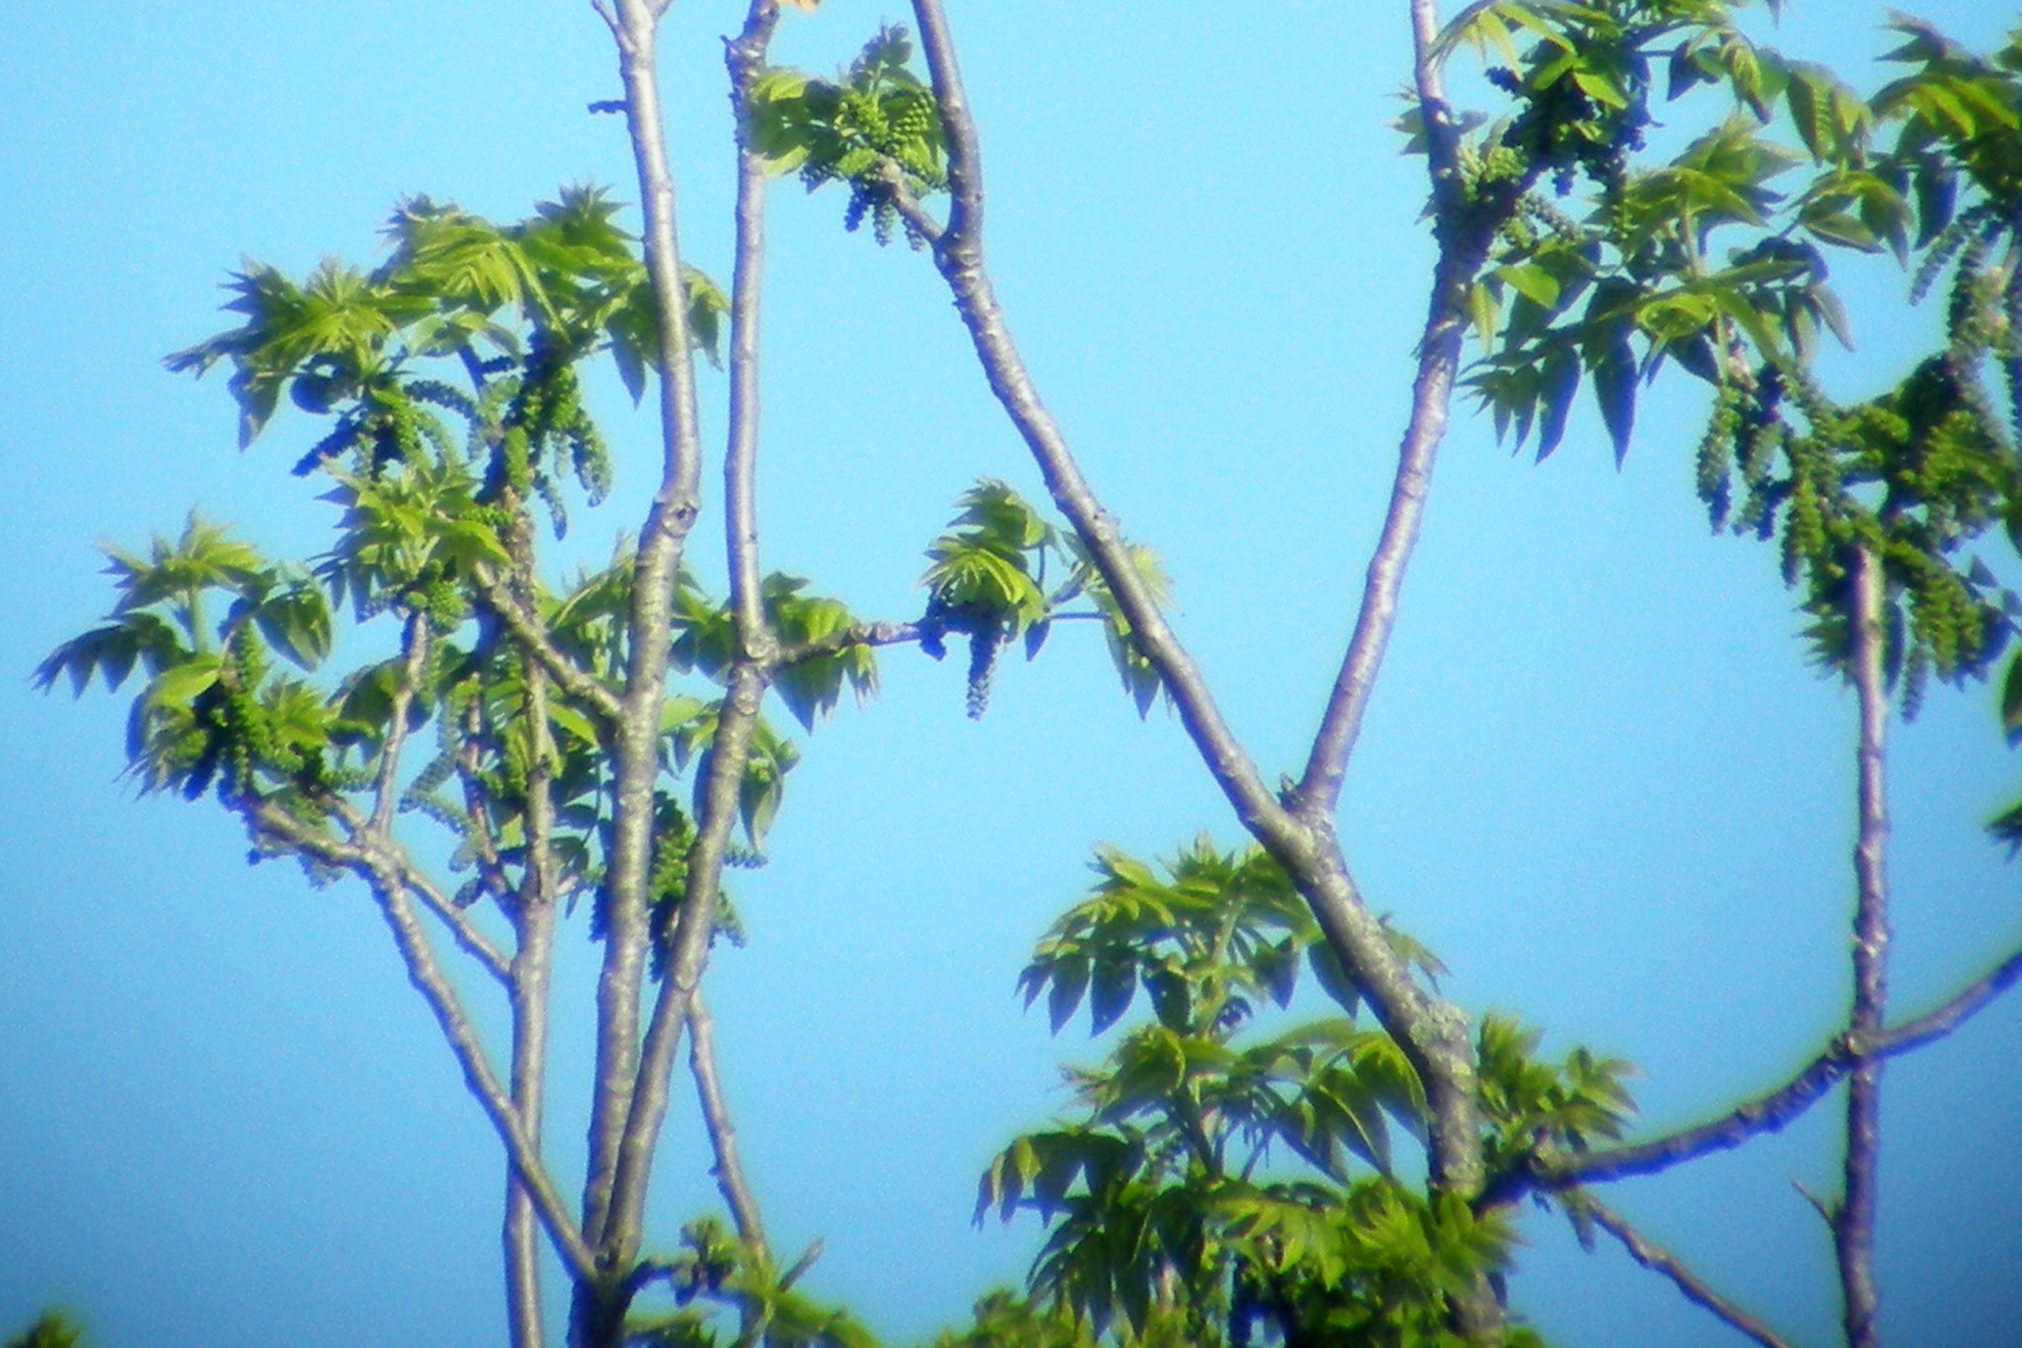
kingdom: Plantae
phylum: Tracheophyta
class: Magnoliopsida
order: Fagales
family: Juglandaceae
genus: Juglans
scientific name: Juglans nigra
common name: Black walnut
